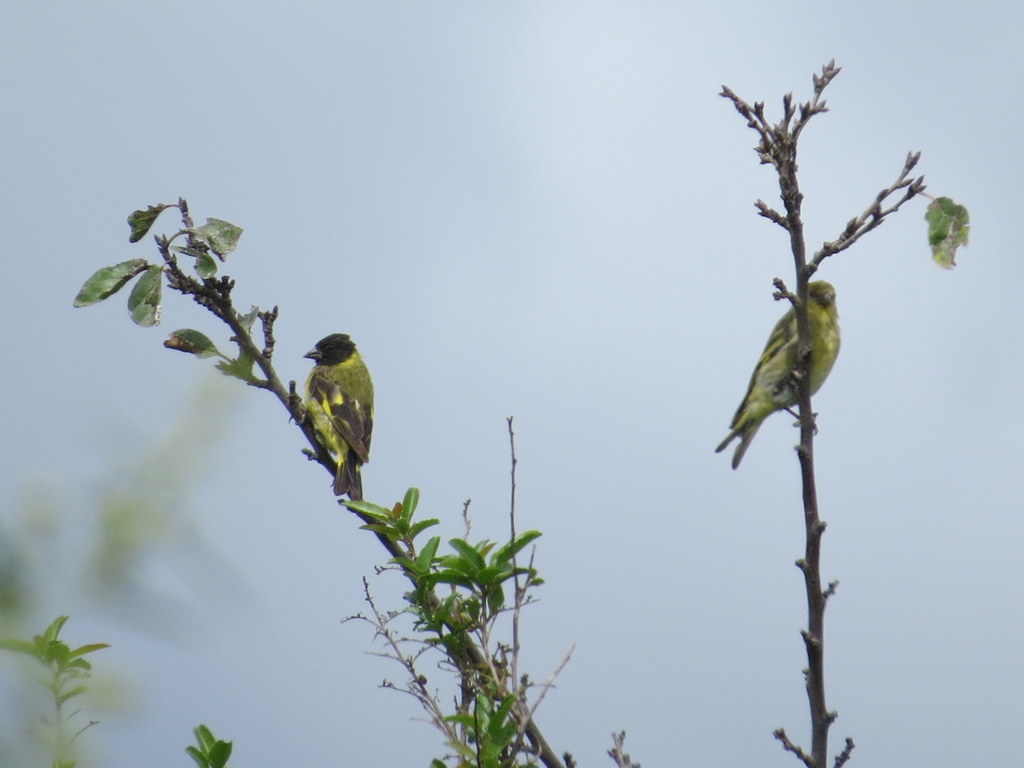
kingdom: Animalia
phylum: Chordata
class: Aves
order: Passeriformes
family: Fringillidae
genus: Spinus
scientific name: Spinus magellanicus
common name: Hooded siskin
